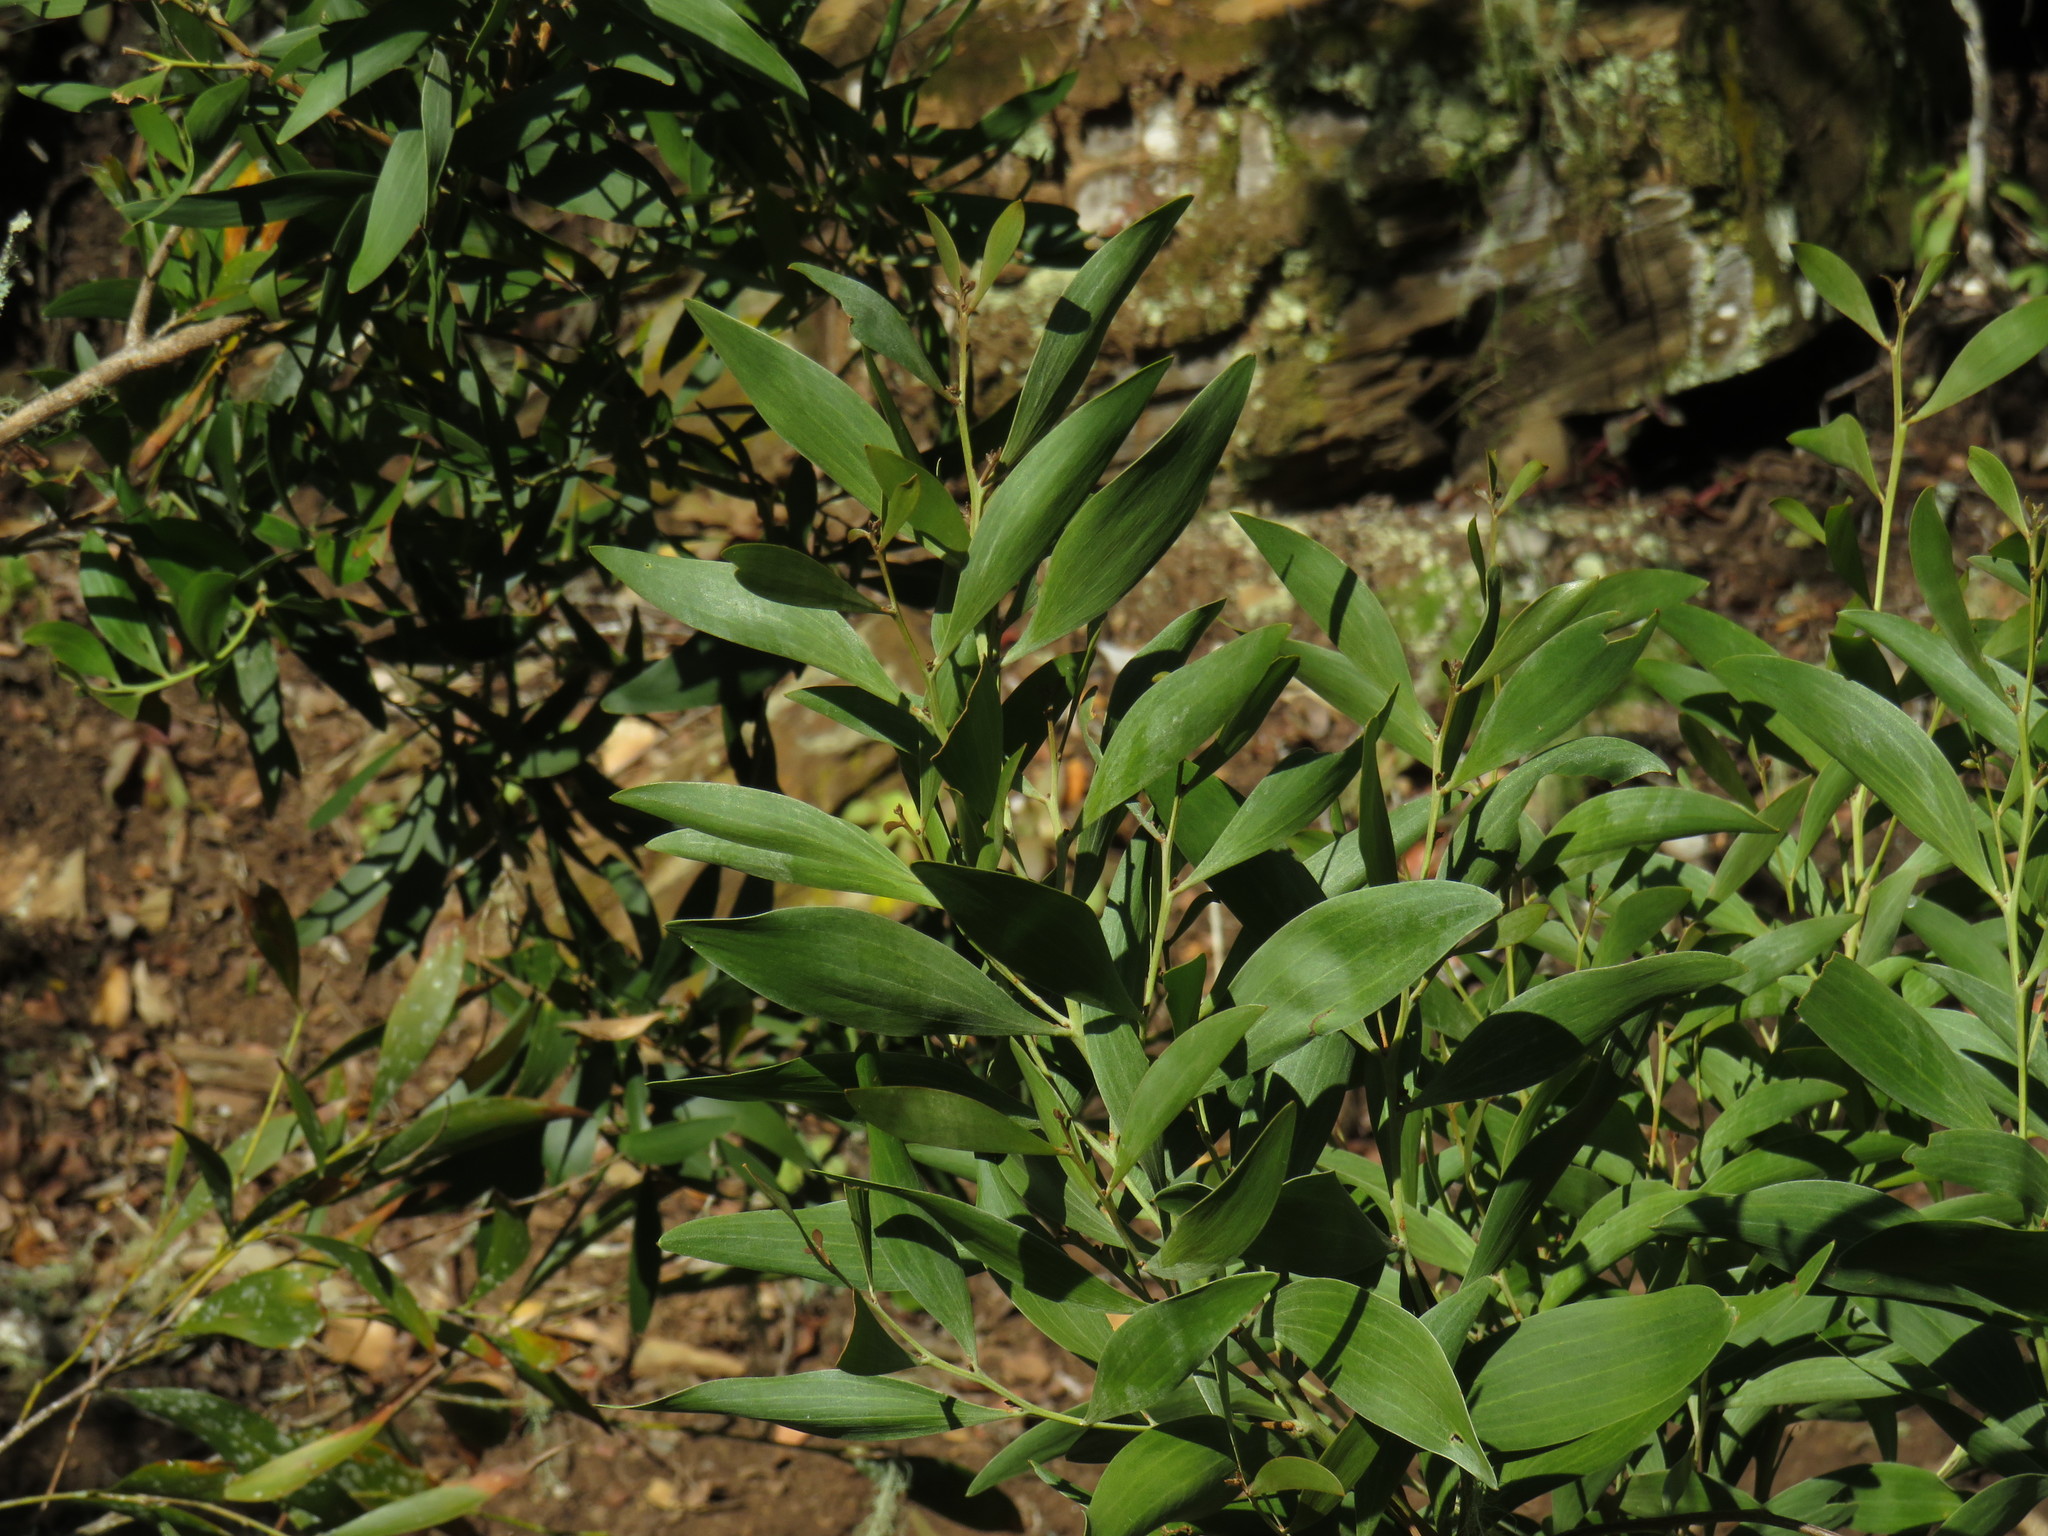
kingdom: Plantae
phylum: Tracheophyta
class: Magnoliopsida
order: Fabales
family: Fabaceae
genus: Acacia
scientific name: Acacia melanoxylon
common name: Blackwood
